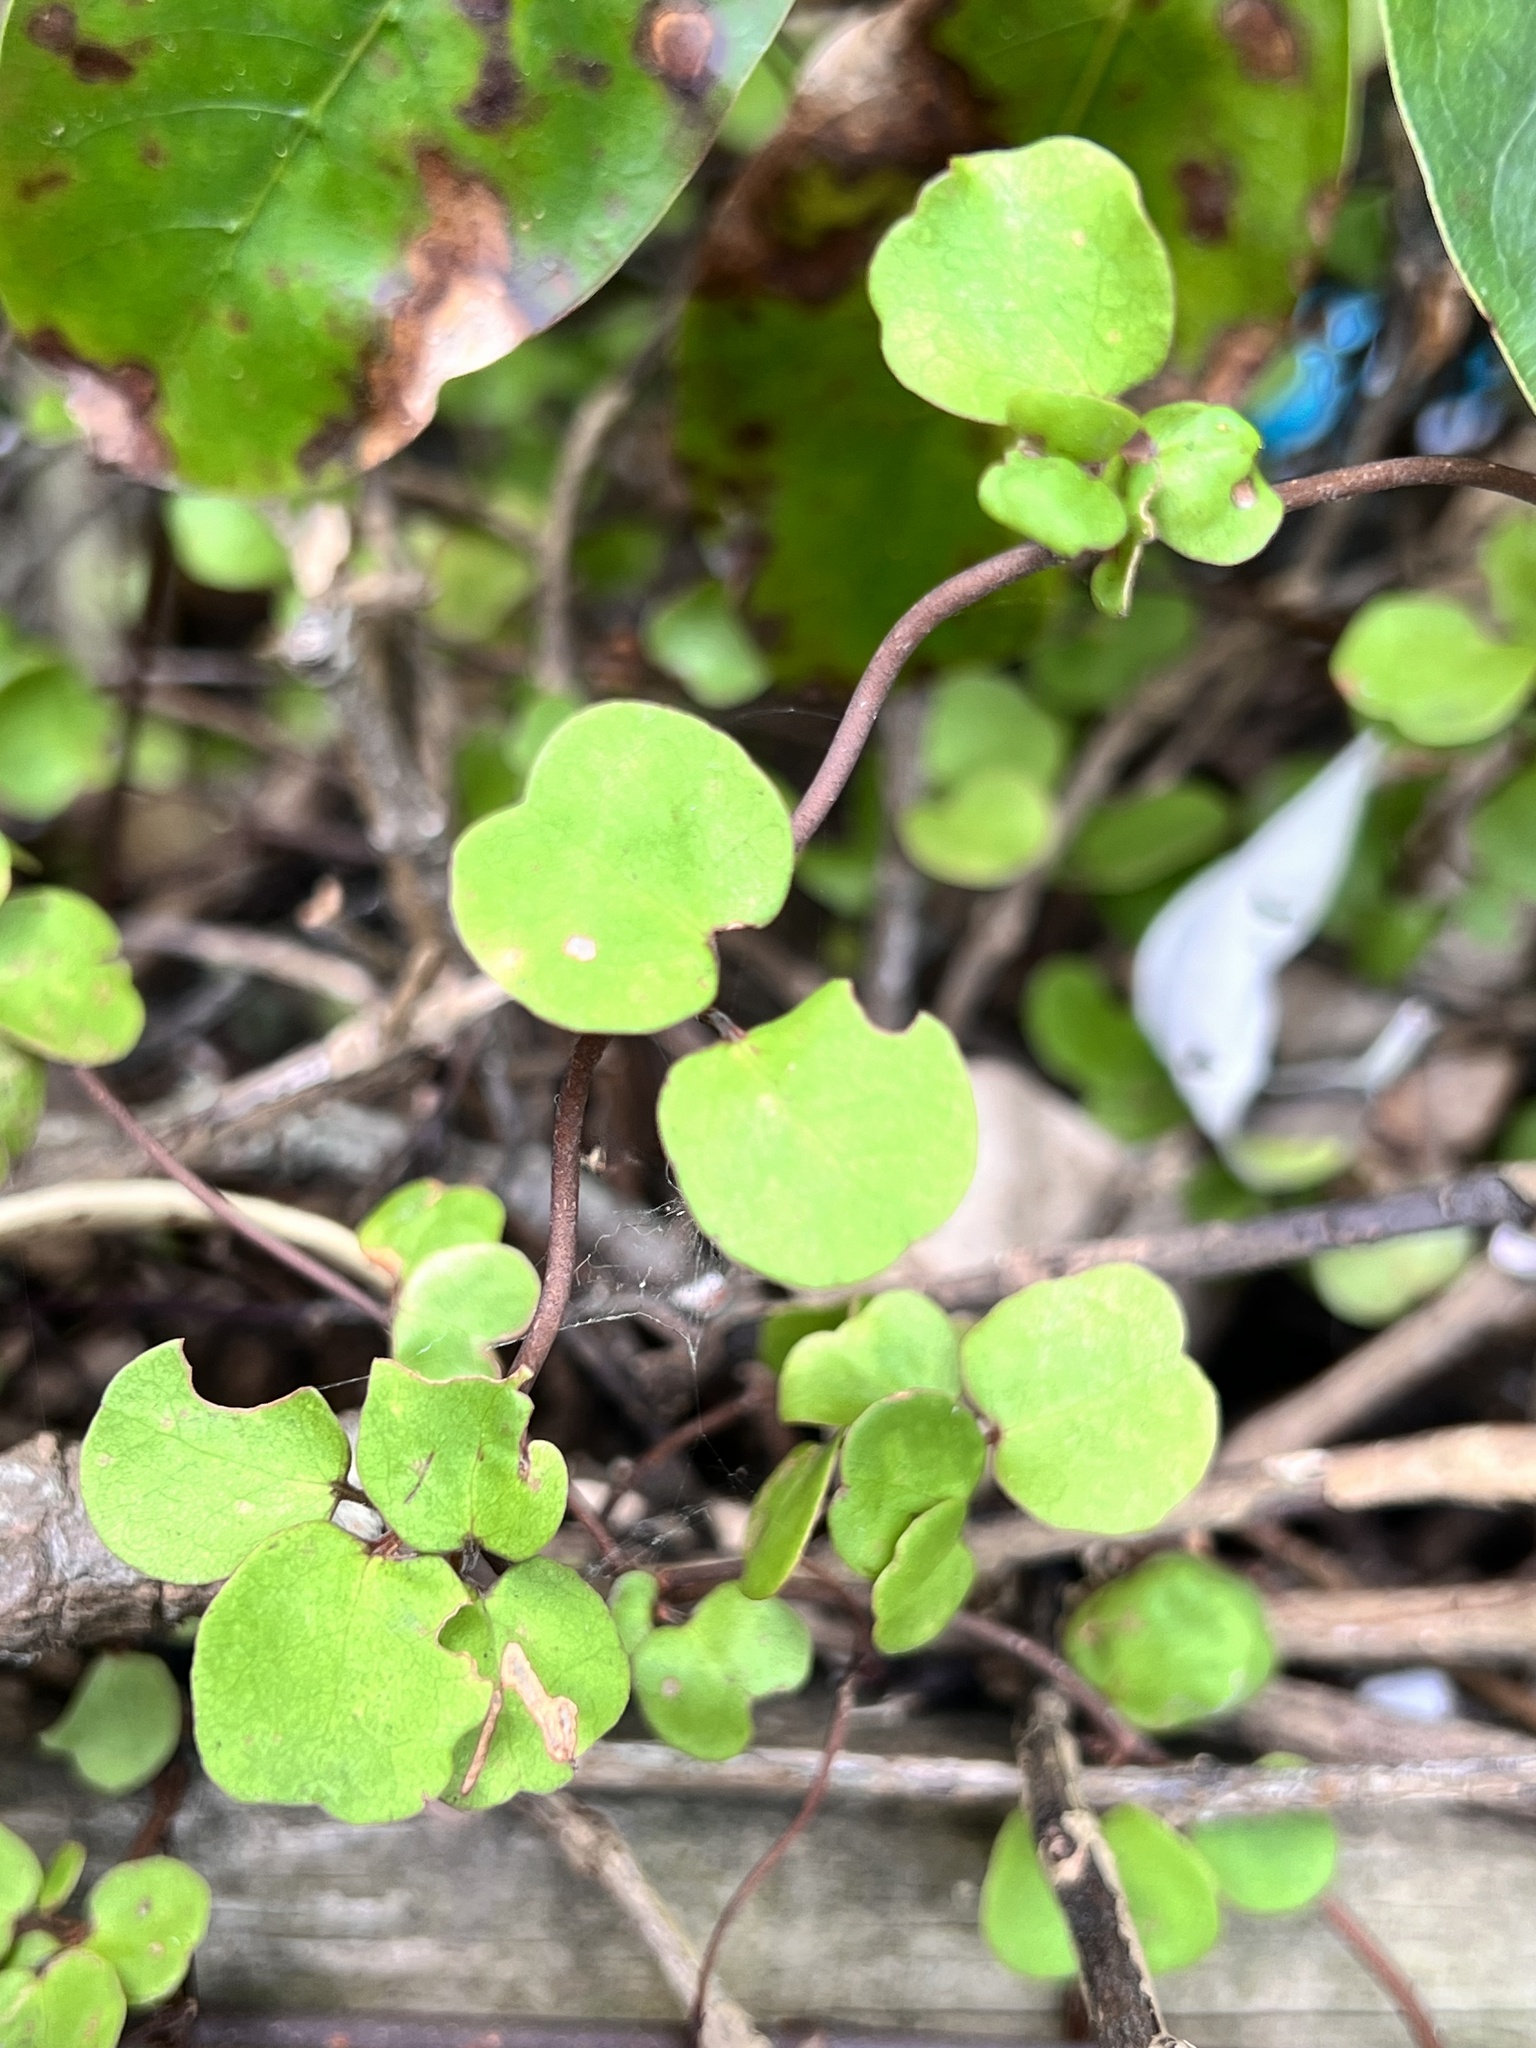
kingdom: Plantae
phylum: Tracheophyta
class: Magnoliopsida
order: Caryophyllales
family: Polygonaceae
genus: Muehlenbeckia
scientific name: Muehlenbeckia complexa
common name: Wireplant
